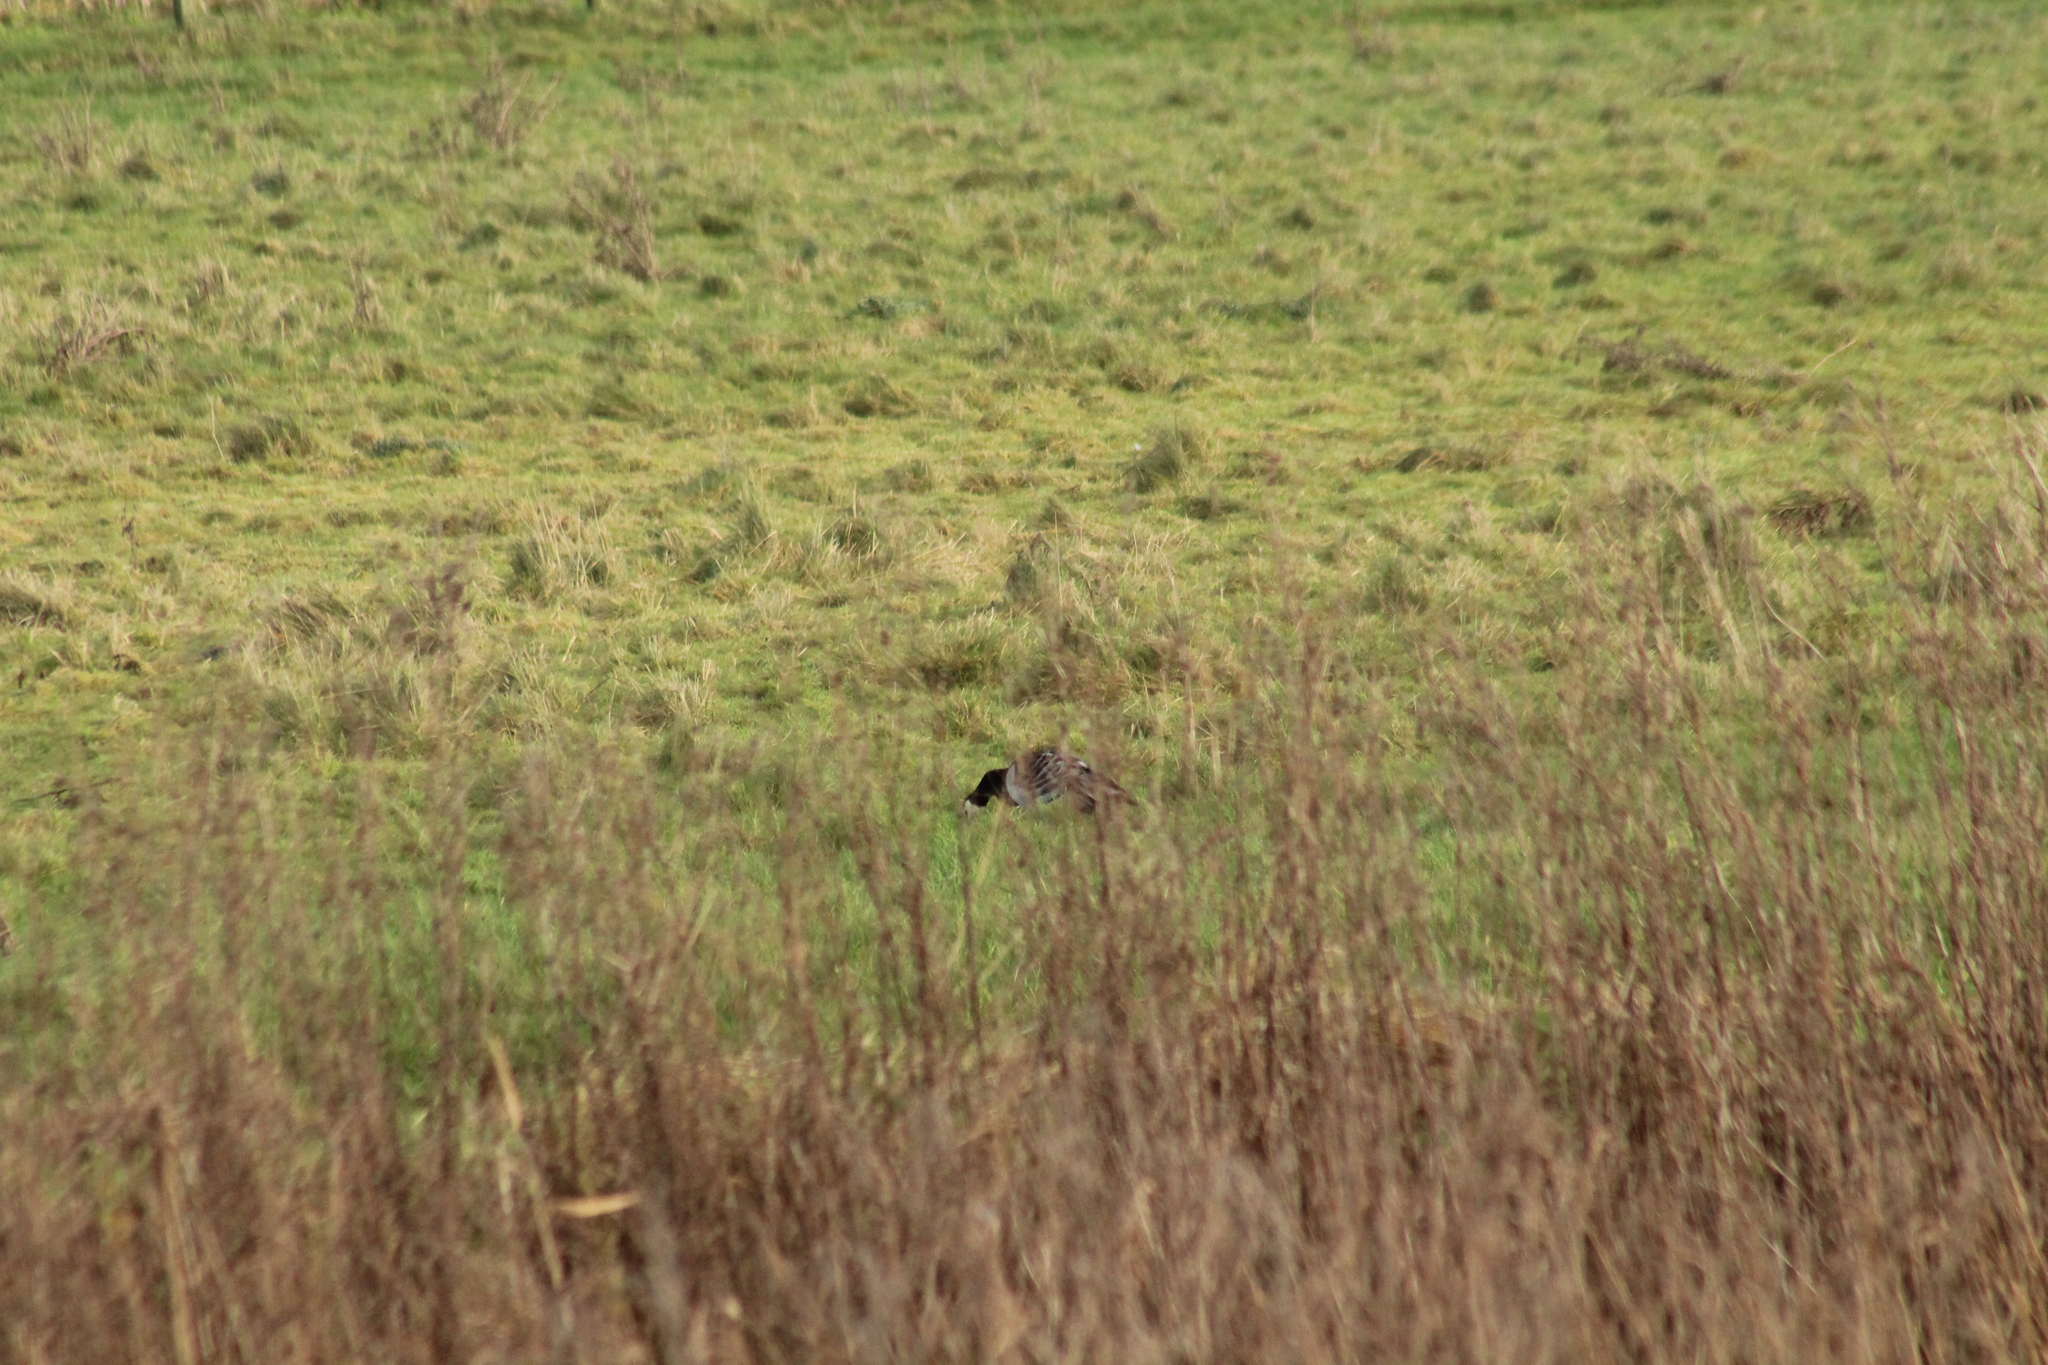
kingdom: Animalia
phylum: Chordata
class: Aves
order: Anseriformes
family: Anatidae
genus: Branta
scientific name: Branta leucopsis
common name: Barnacle goose
